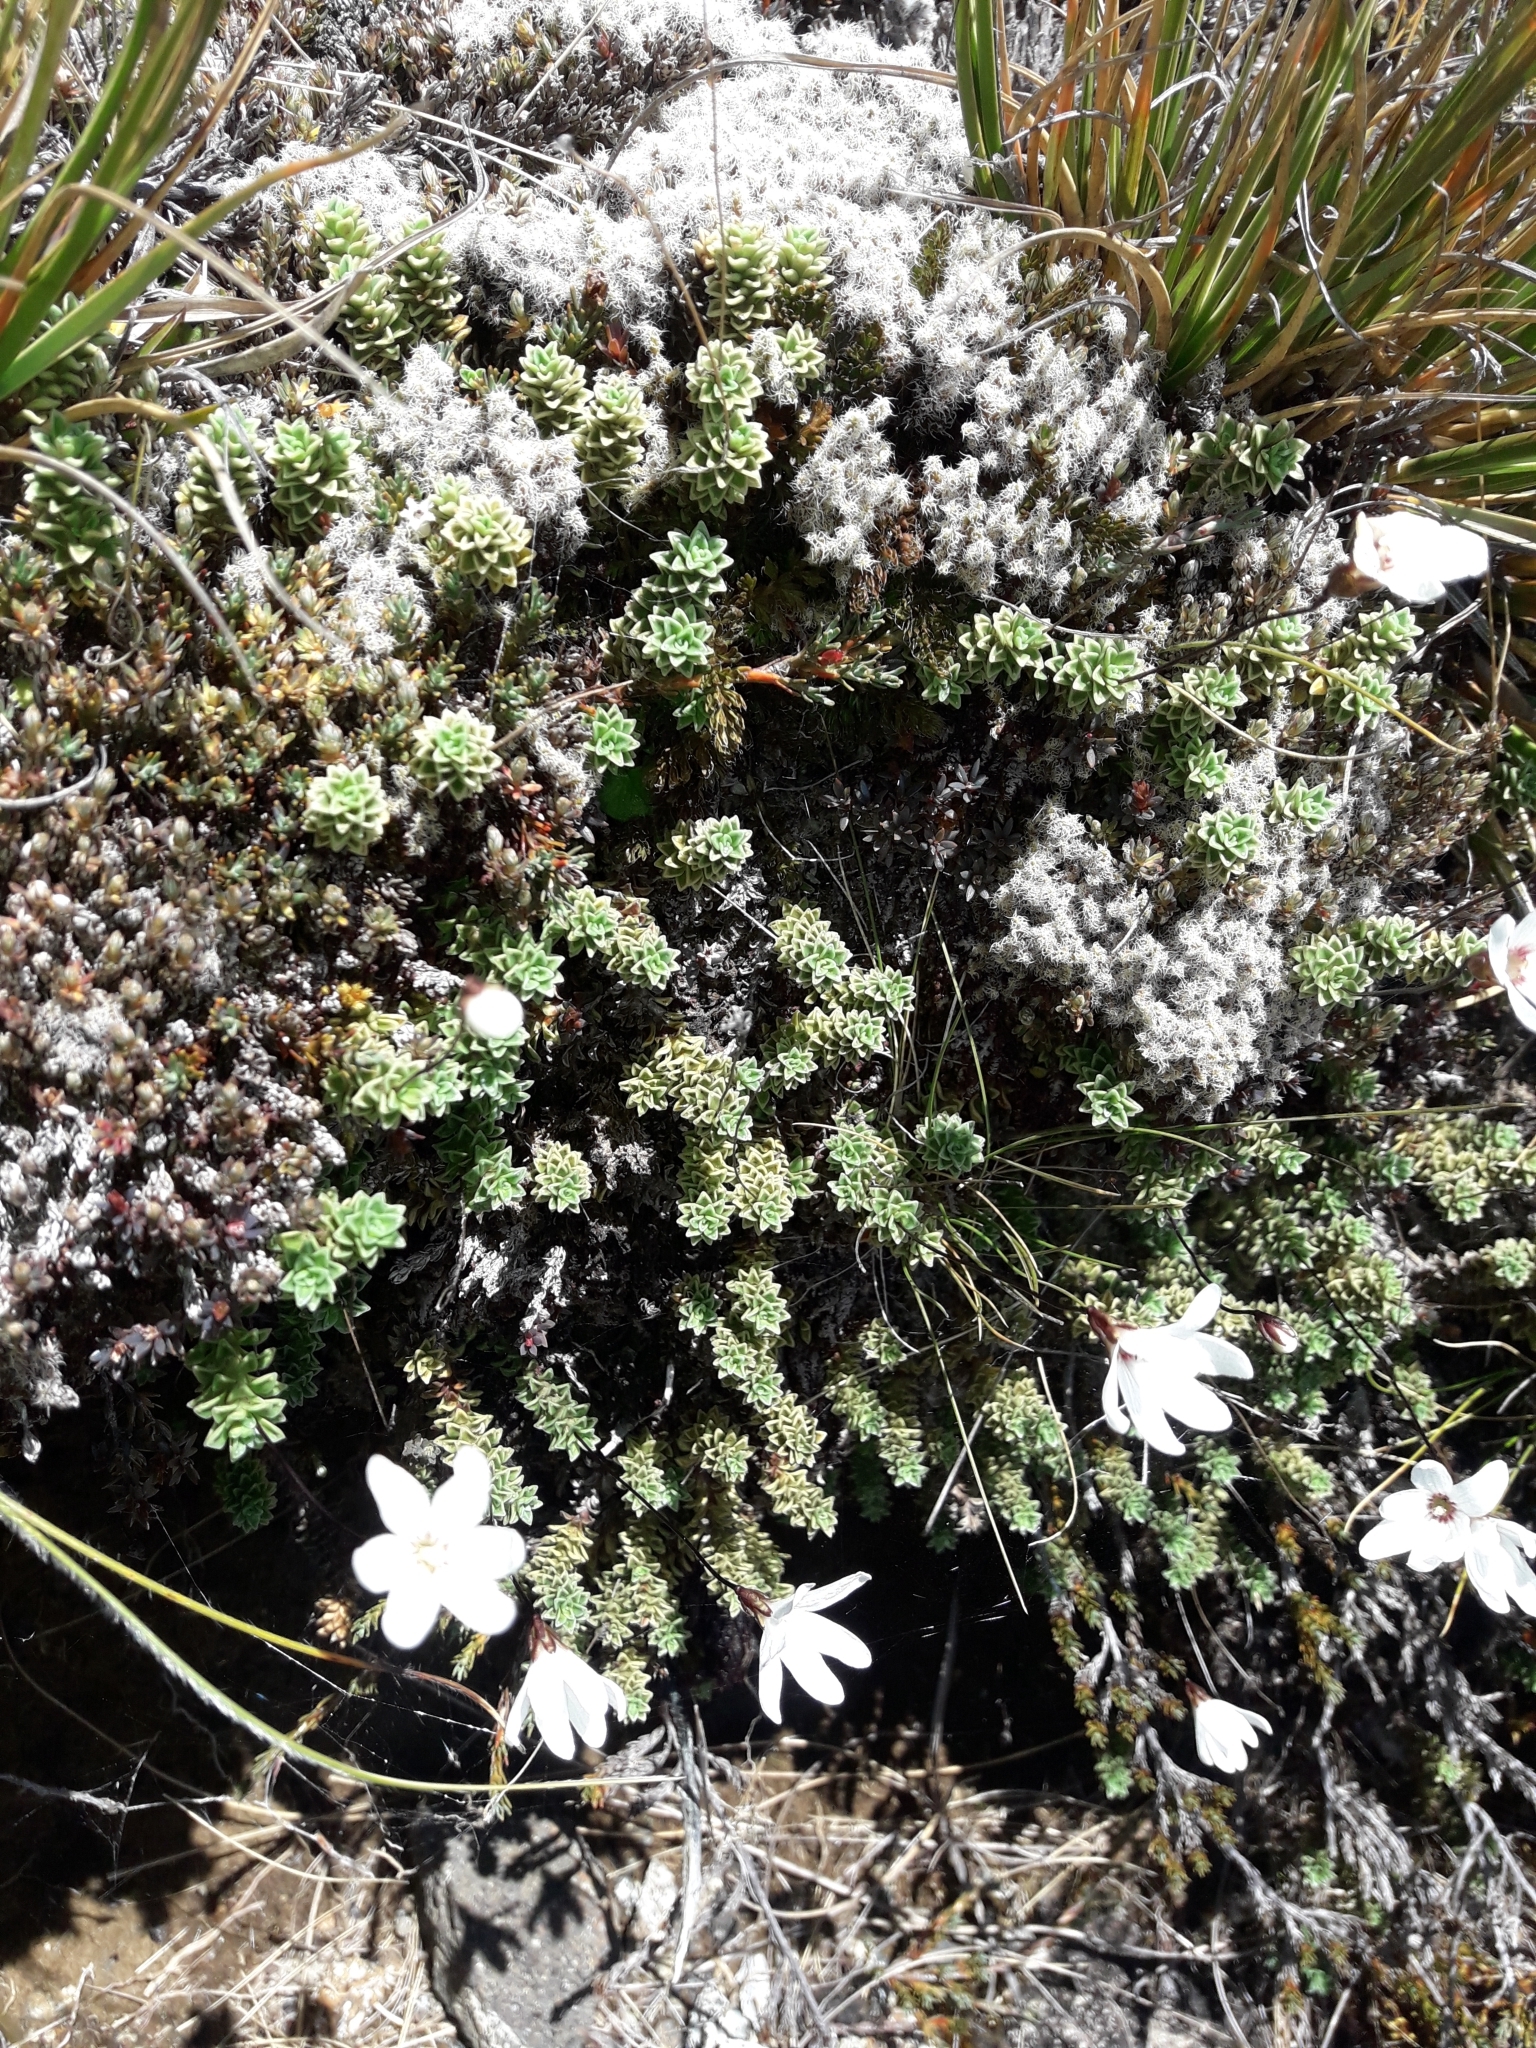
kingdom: Plantae
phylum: Tracheophyta
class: Magnoliopsida
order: Asterales
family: Stylidiaceae
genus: Forstera
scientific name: Forstera sedifolia
